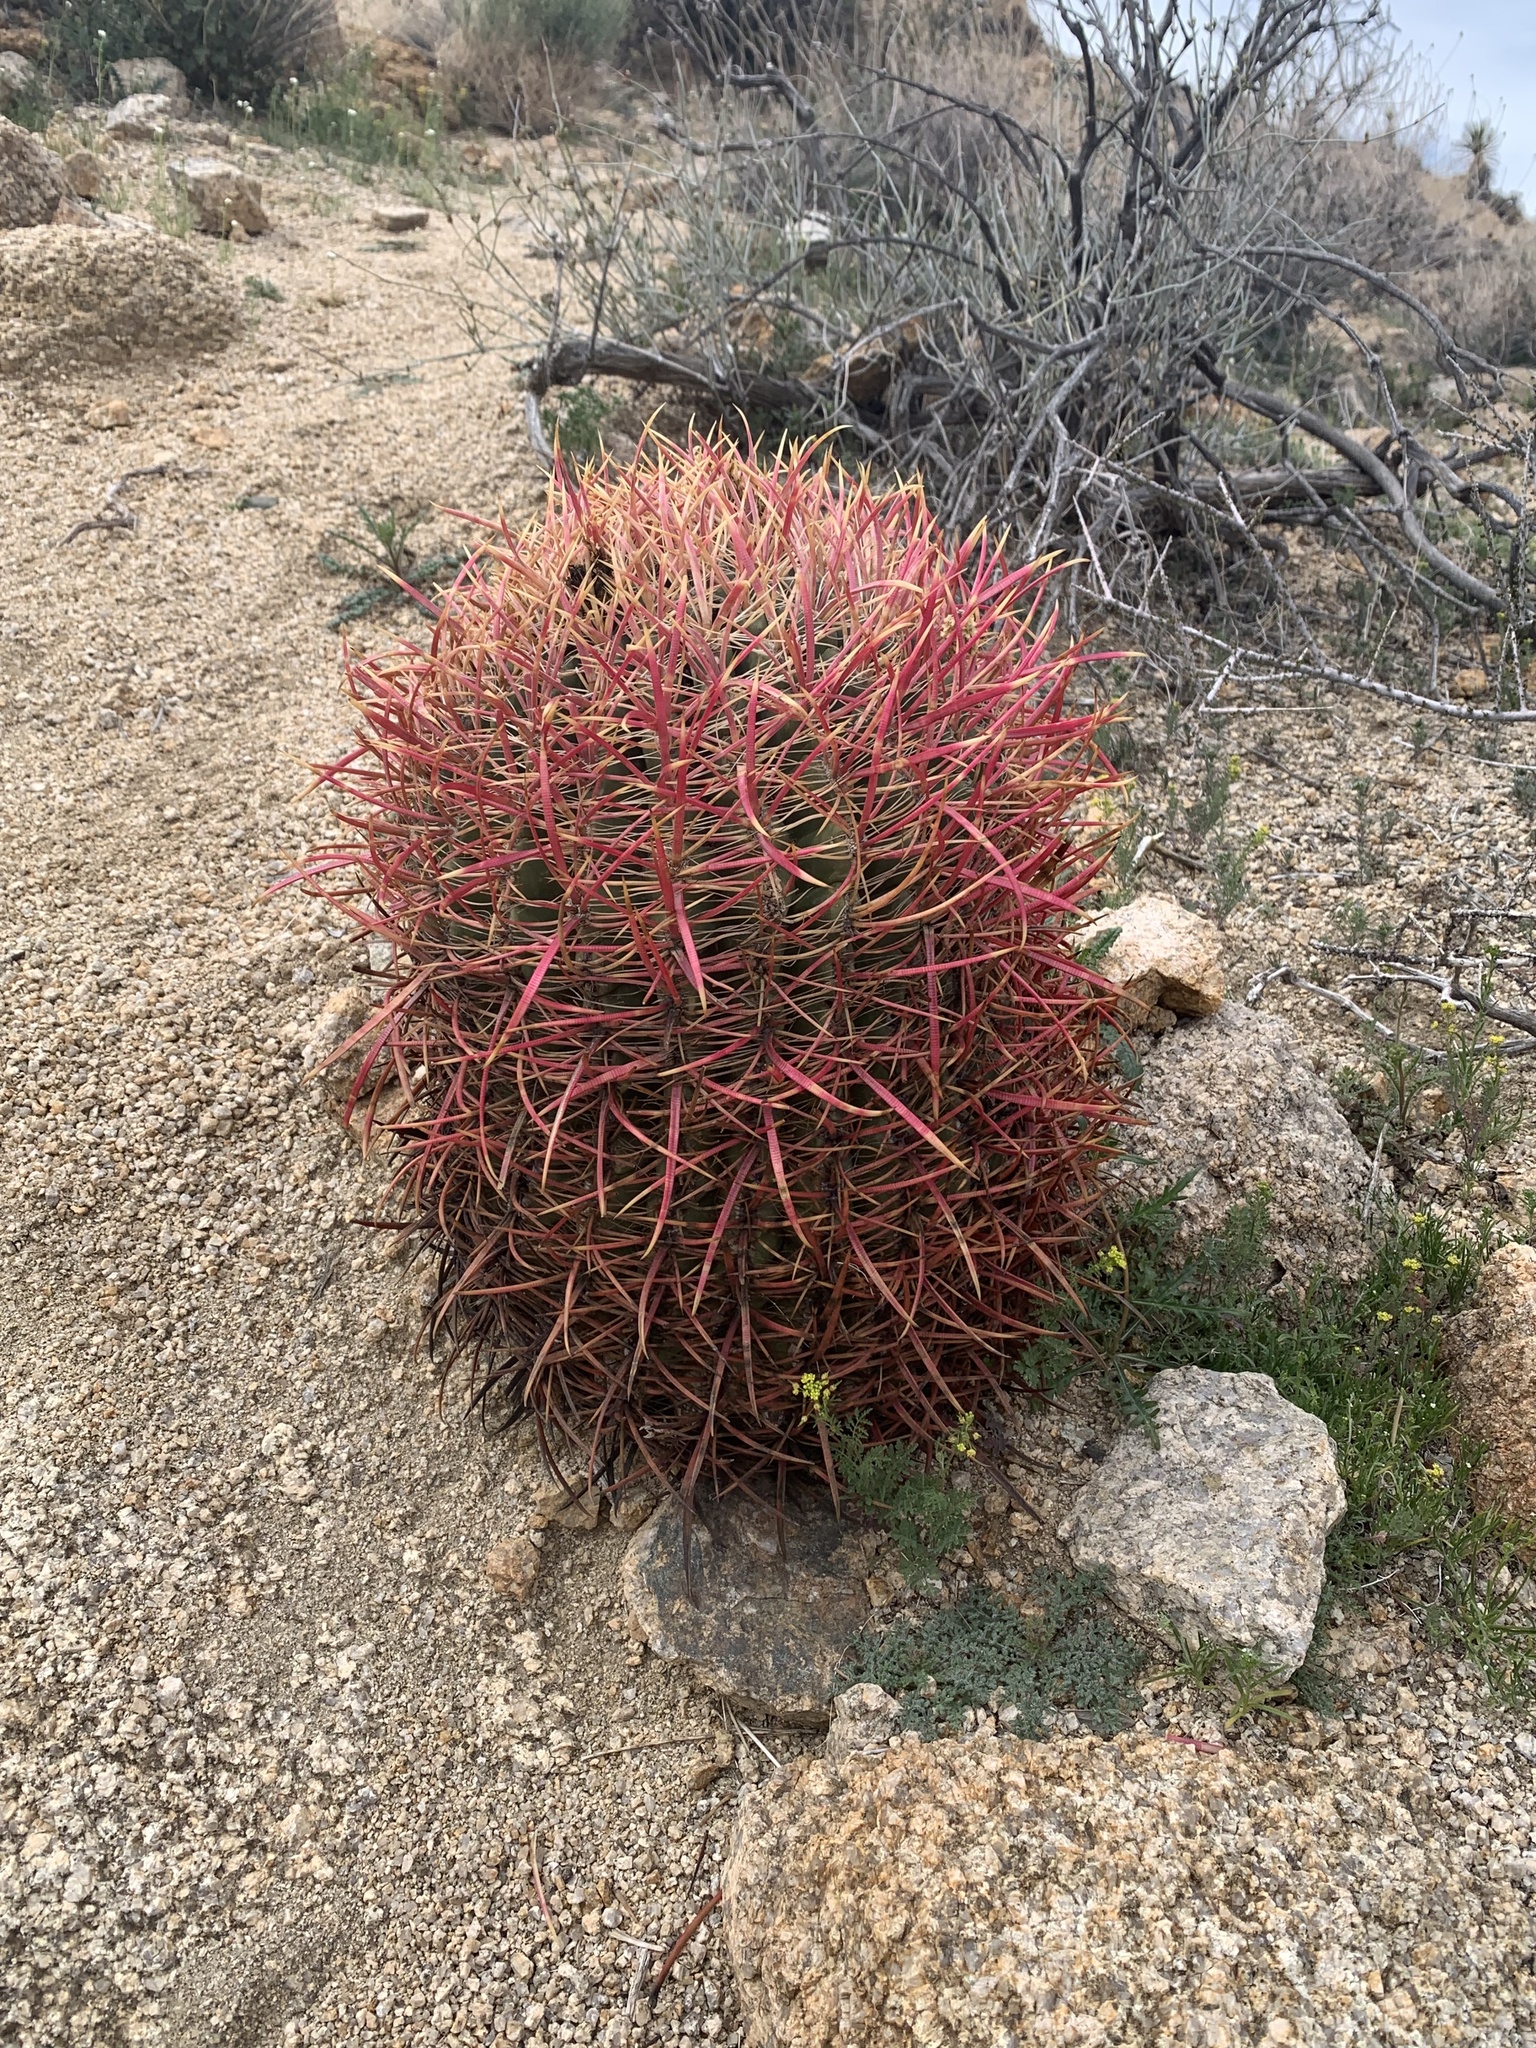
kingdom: Plantae
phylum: Tracheophyta
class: Magnoliopsida
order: Caryophyllales
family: Cactaceae
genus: Ferocactus
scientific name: Ferocactus cylindraceus
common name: California barrel cactus
